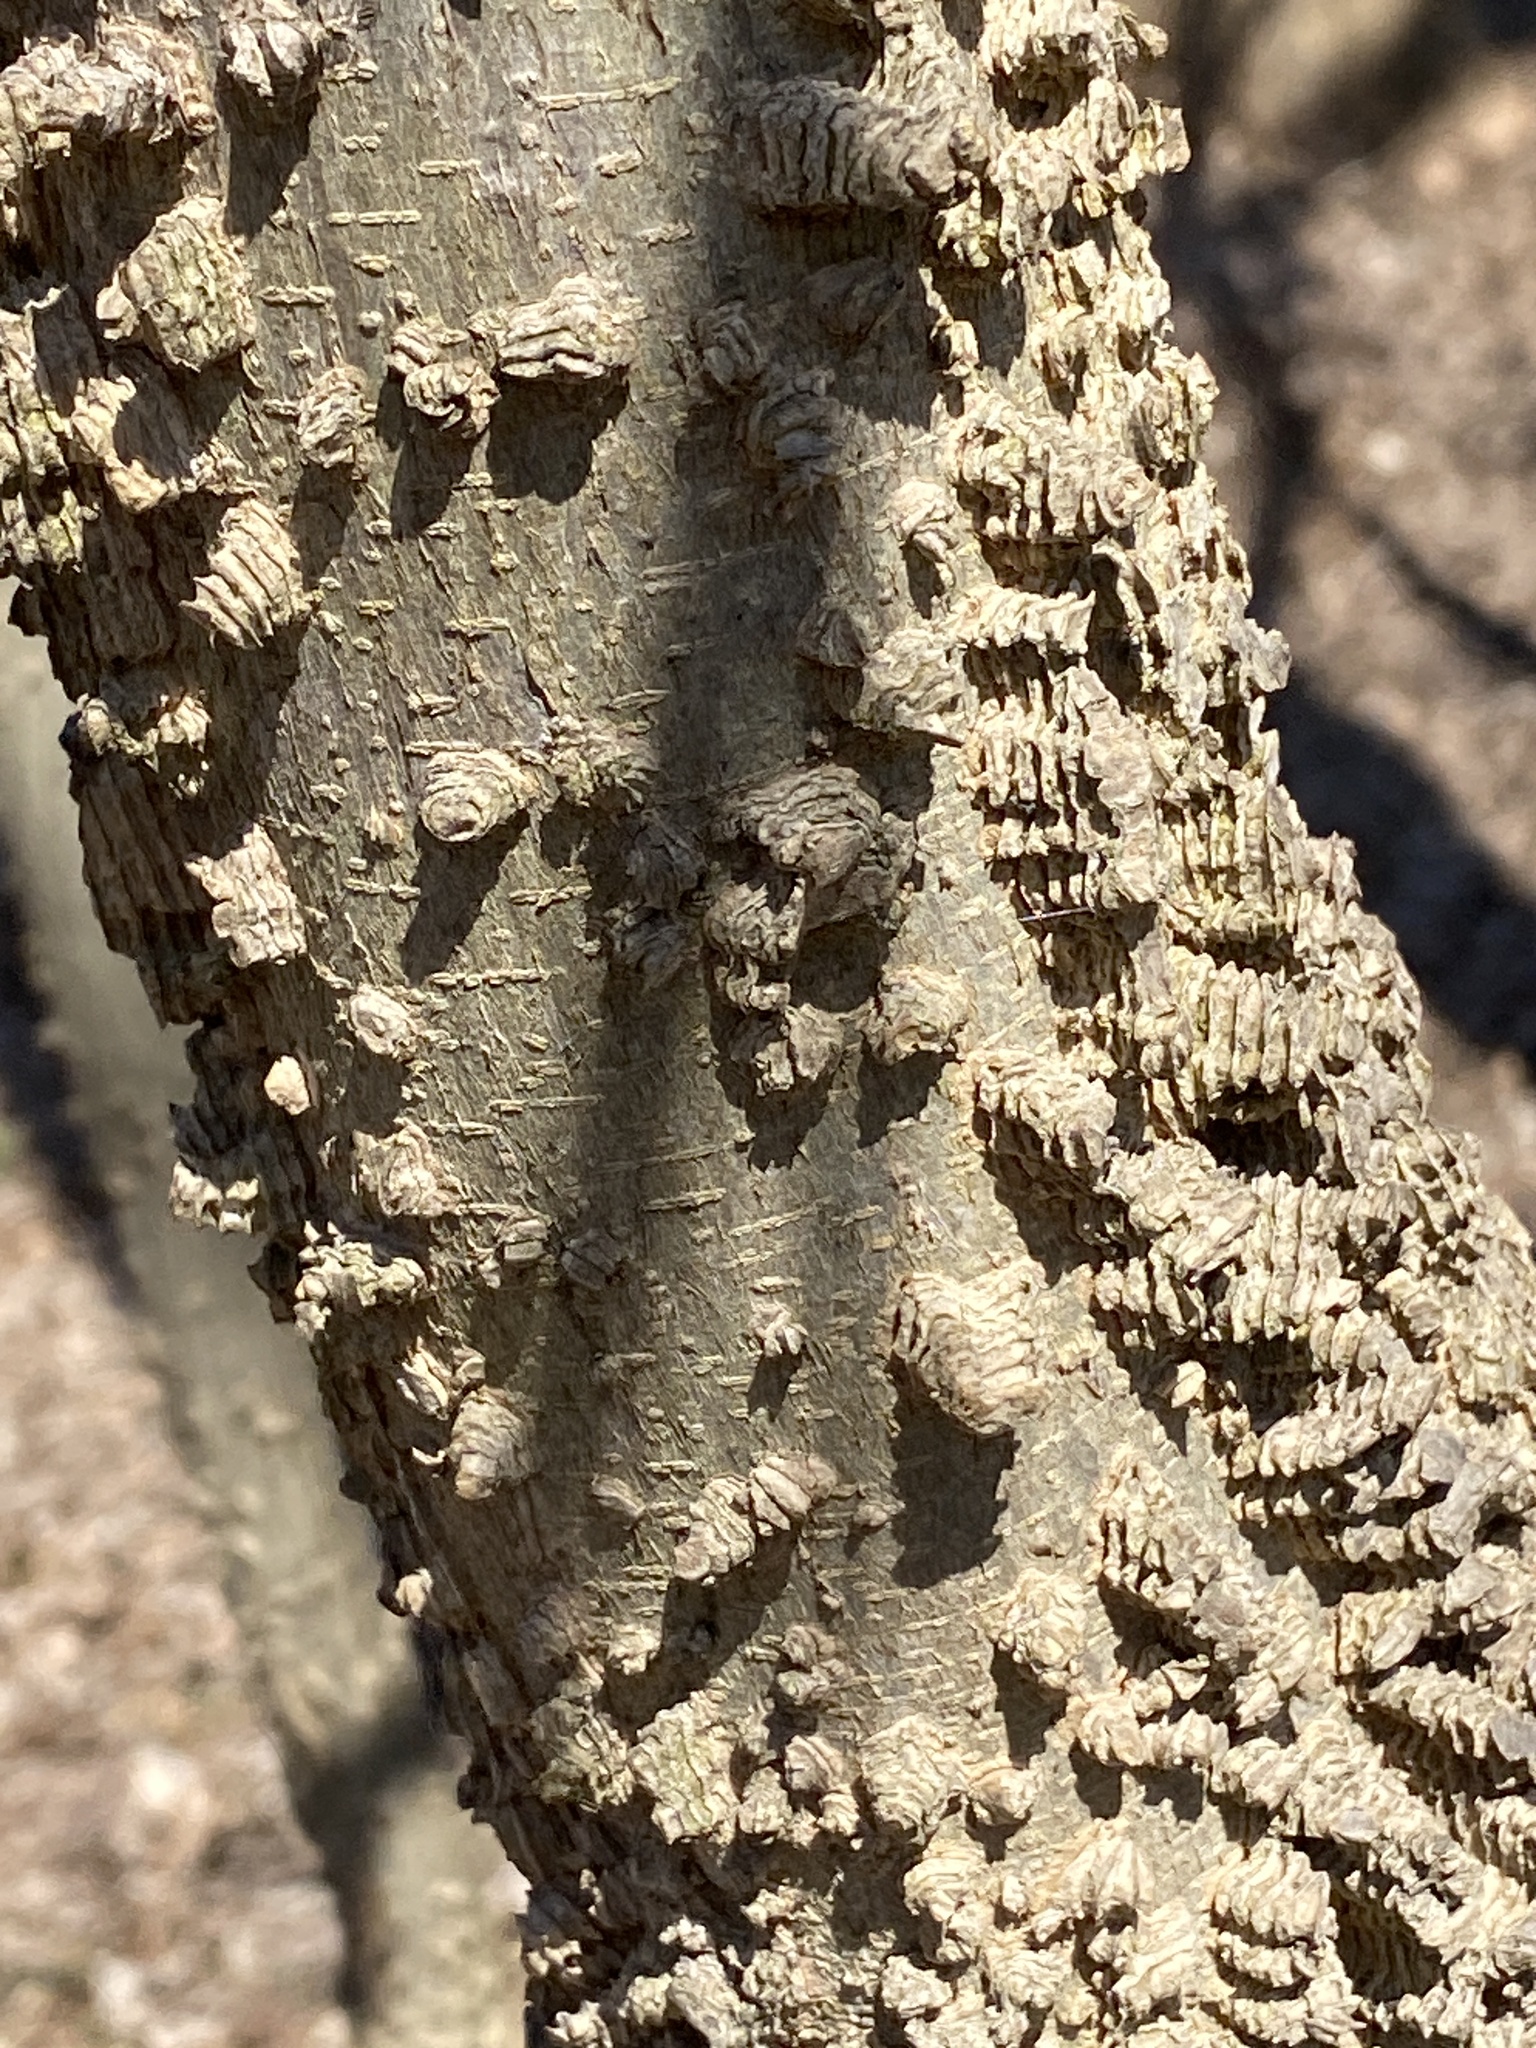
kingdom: Plantae
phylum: Tracheophyta
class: Magnoliopsida
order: Rosales
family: Cannabaceae
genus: Celtis
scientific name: Celtis occidentalis
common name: Common hackberry
